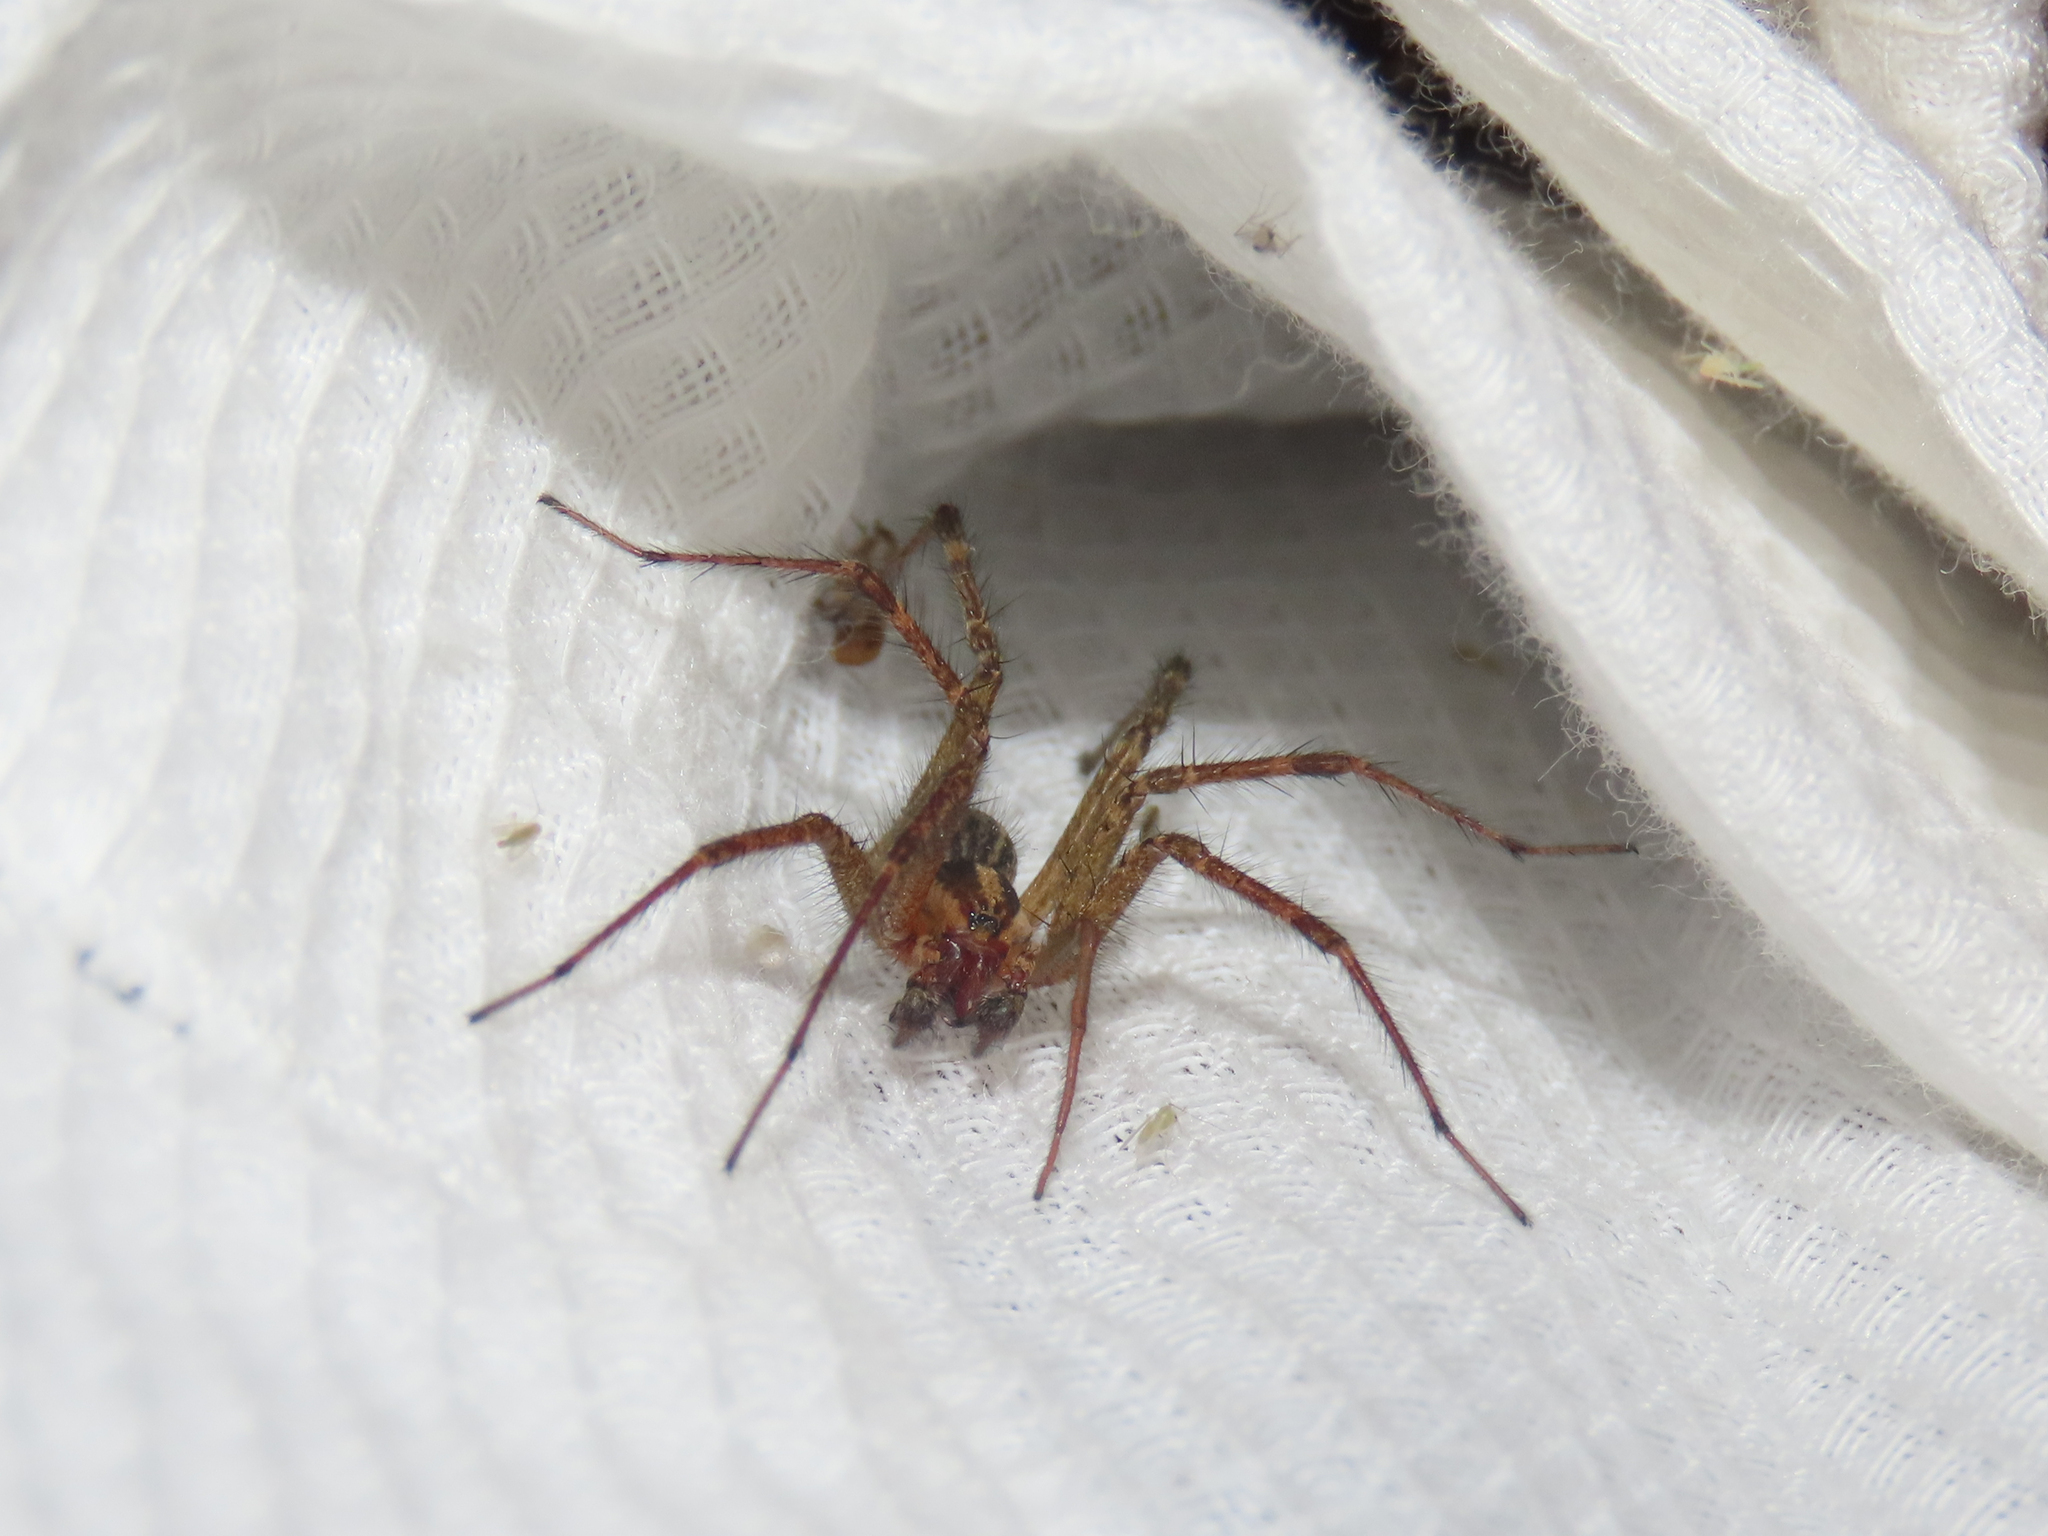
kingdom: Animalia
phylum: Arthropoda
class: Arachnida
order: Araneae
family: Agelenidae
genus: Agelenopsis
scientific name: Agelenopsis
